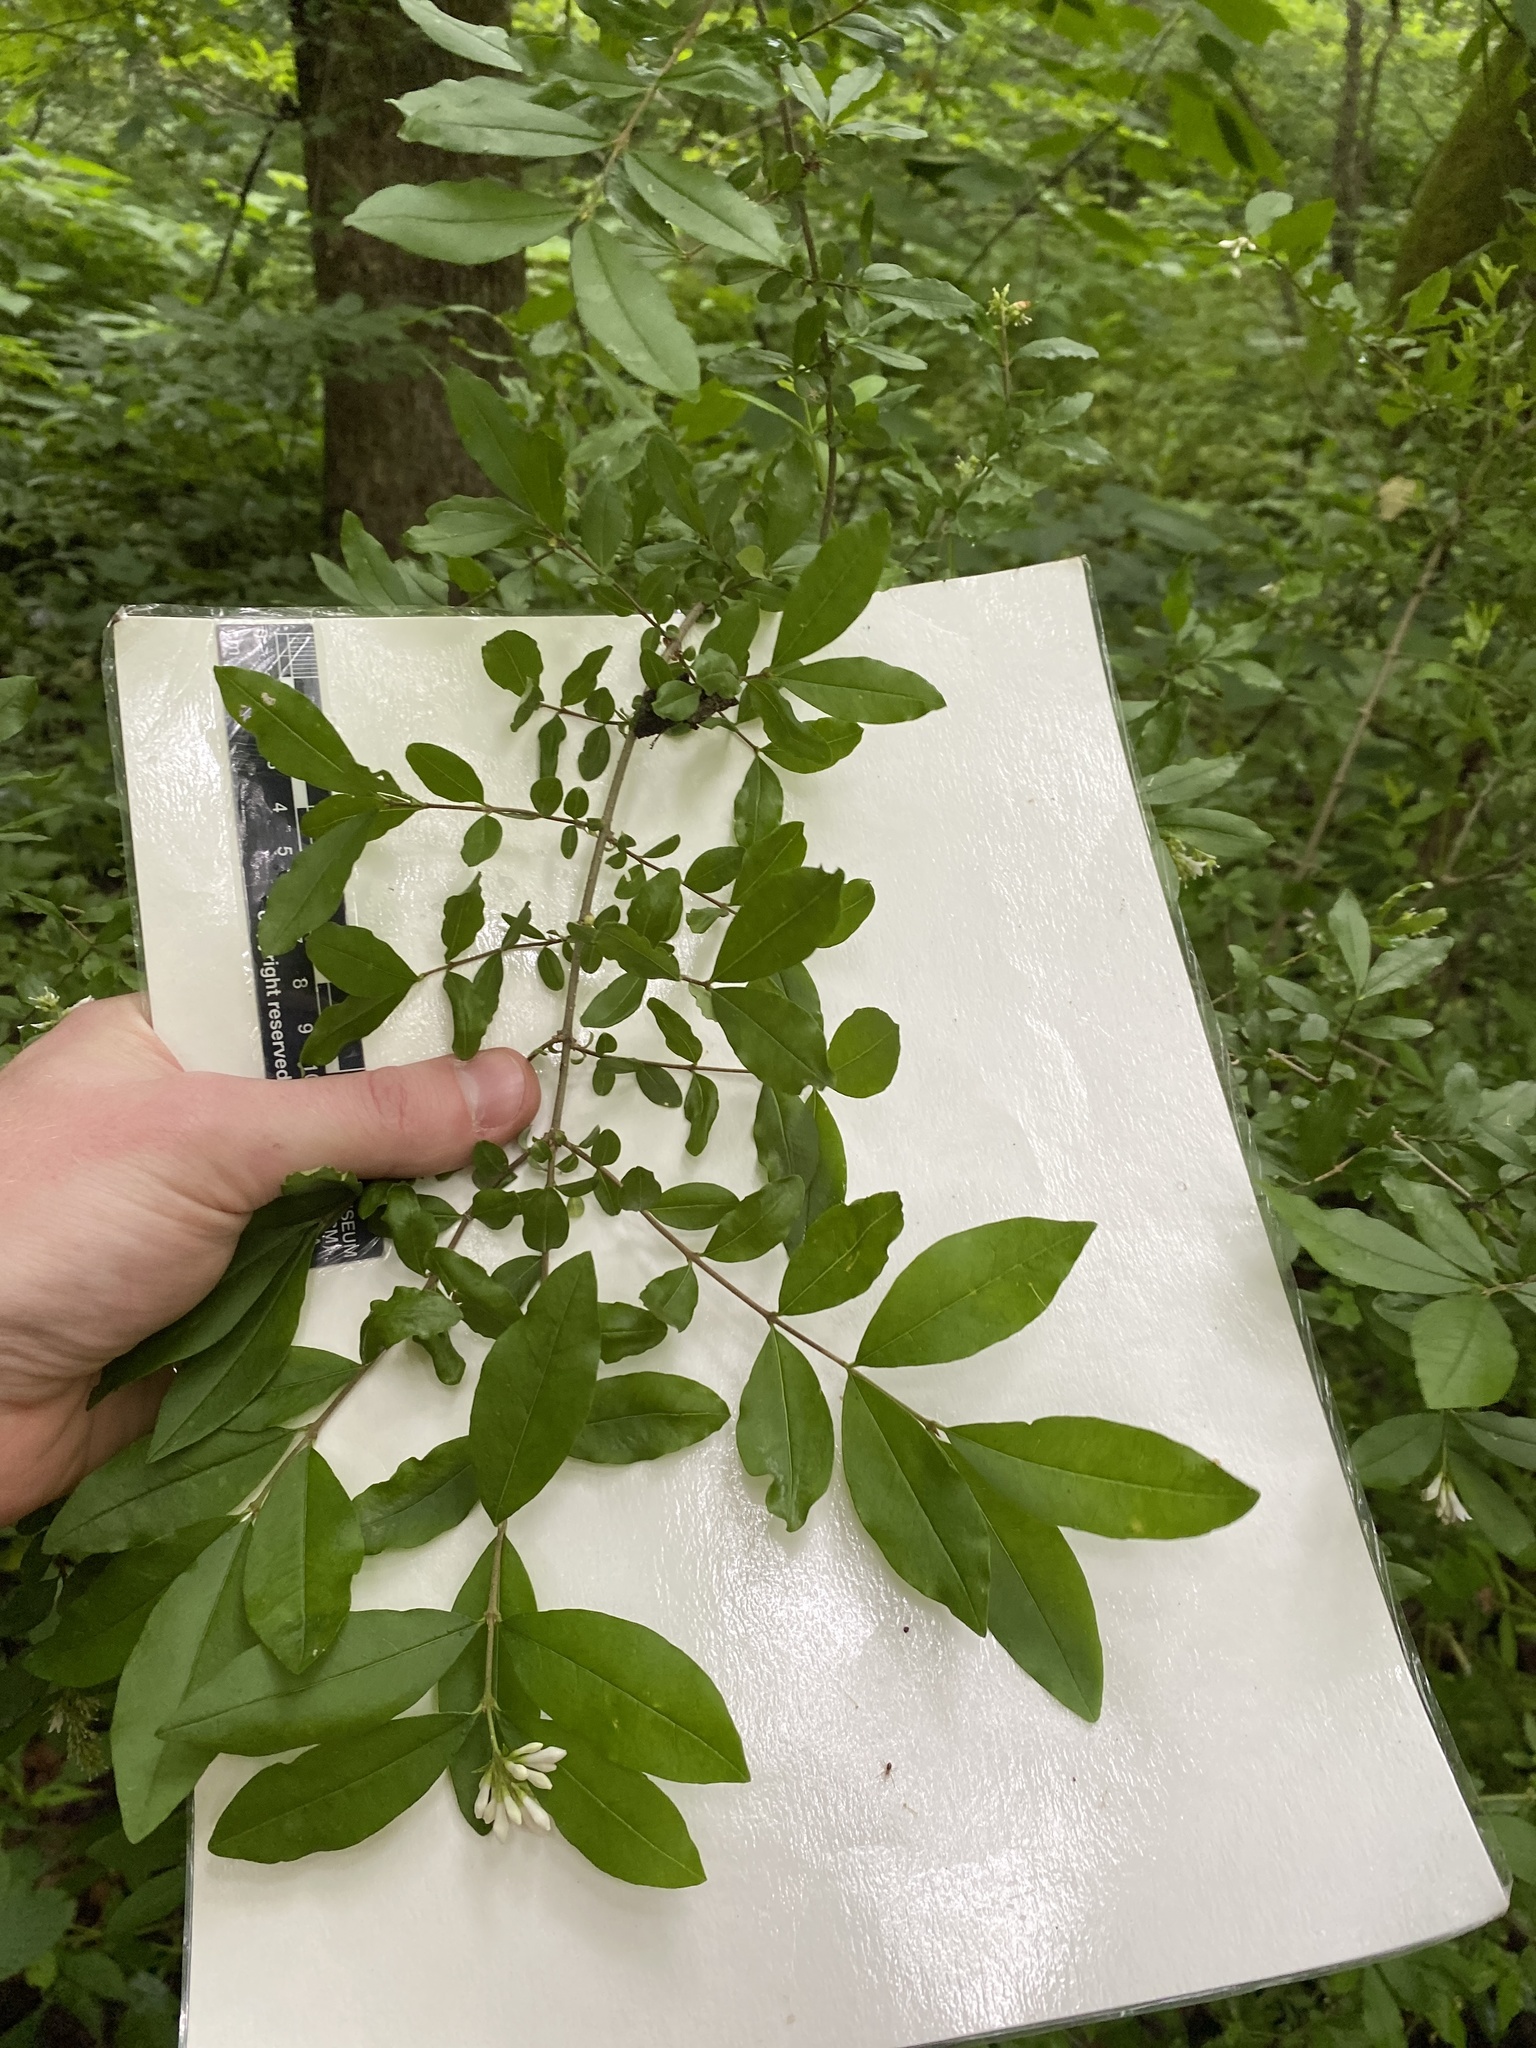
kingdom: Plantae
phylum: Tracheophyta
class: Magnoliopsida
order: Lamiales
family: Oleaceae
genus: Ligustrum
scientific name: Ligustrum obtusifolium
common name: Border privet
